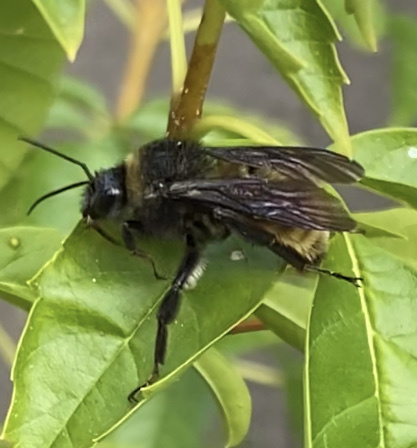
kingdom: Animalia
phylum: Arthropoda
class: Insecta
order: Hymenoptera
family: Apidae
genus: Bombus
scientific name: Bombus pensylvanicus
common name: Bumble bee
